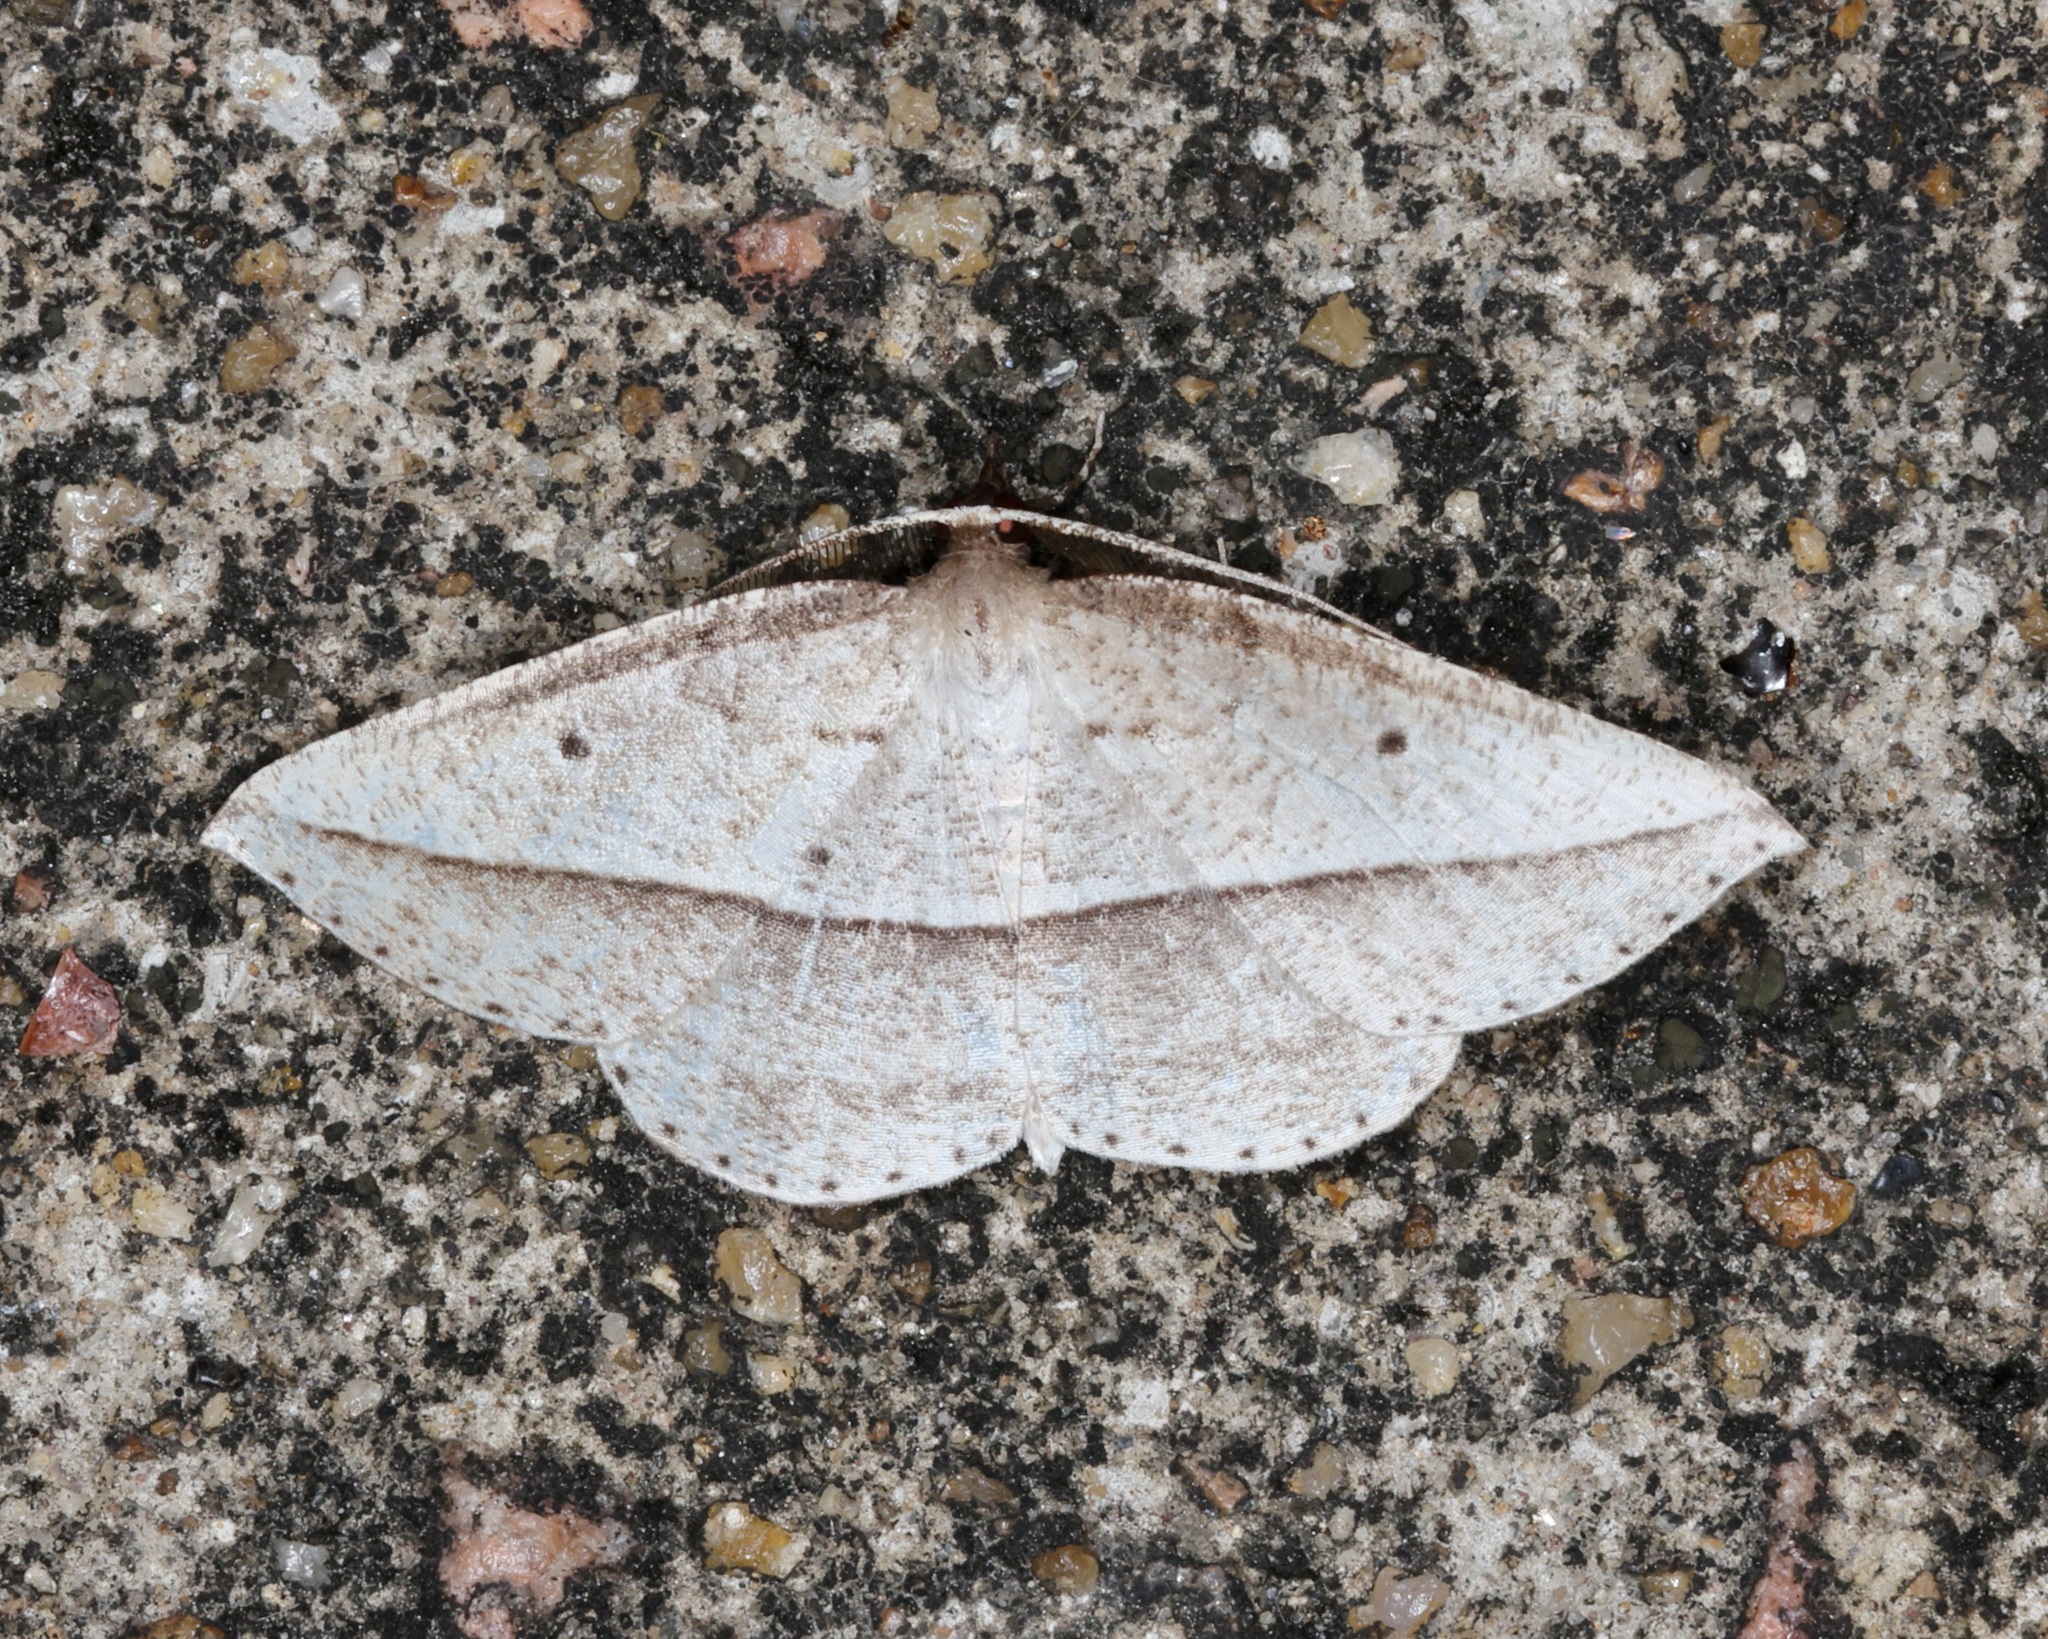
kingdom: Animalia
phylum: Arthropoda
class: Insecta
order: Lepidoptera
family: Geometridae
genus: Heteralex
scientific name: Heteralex unilinea
